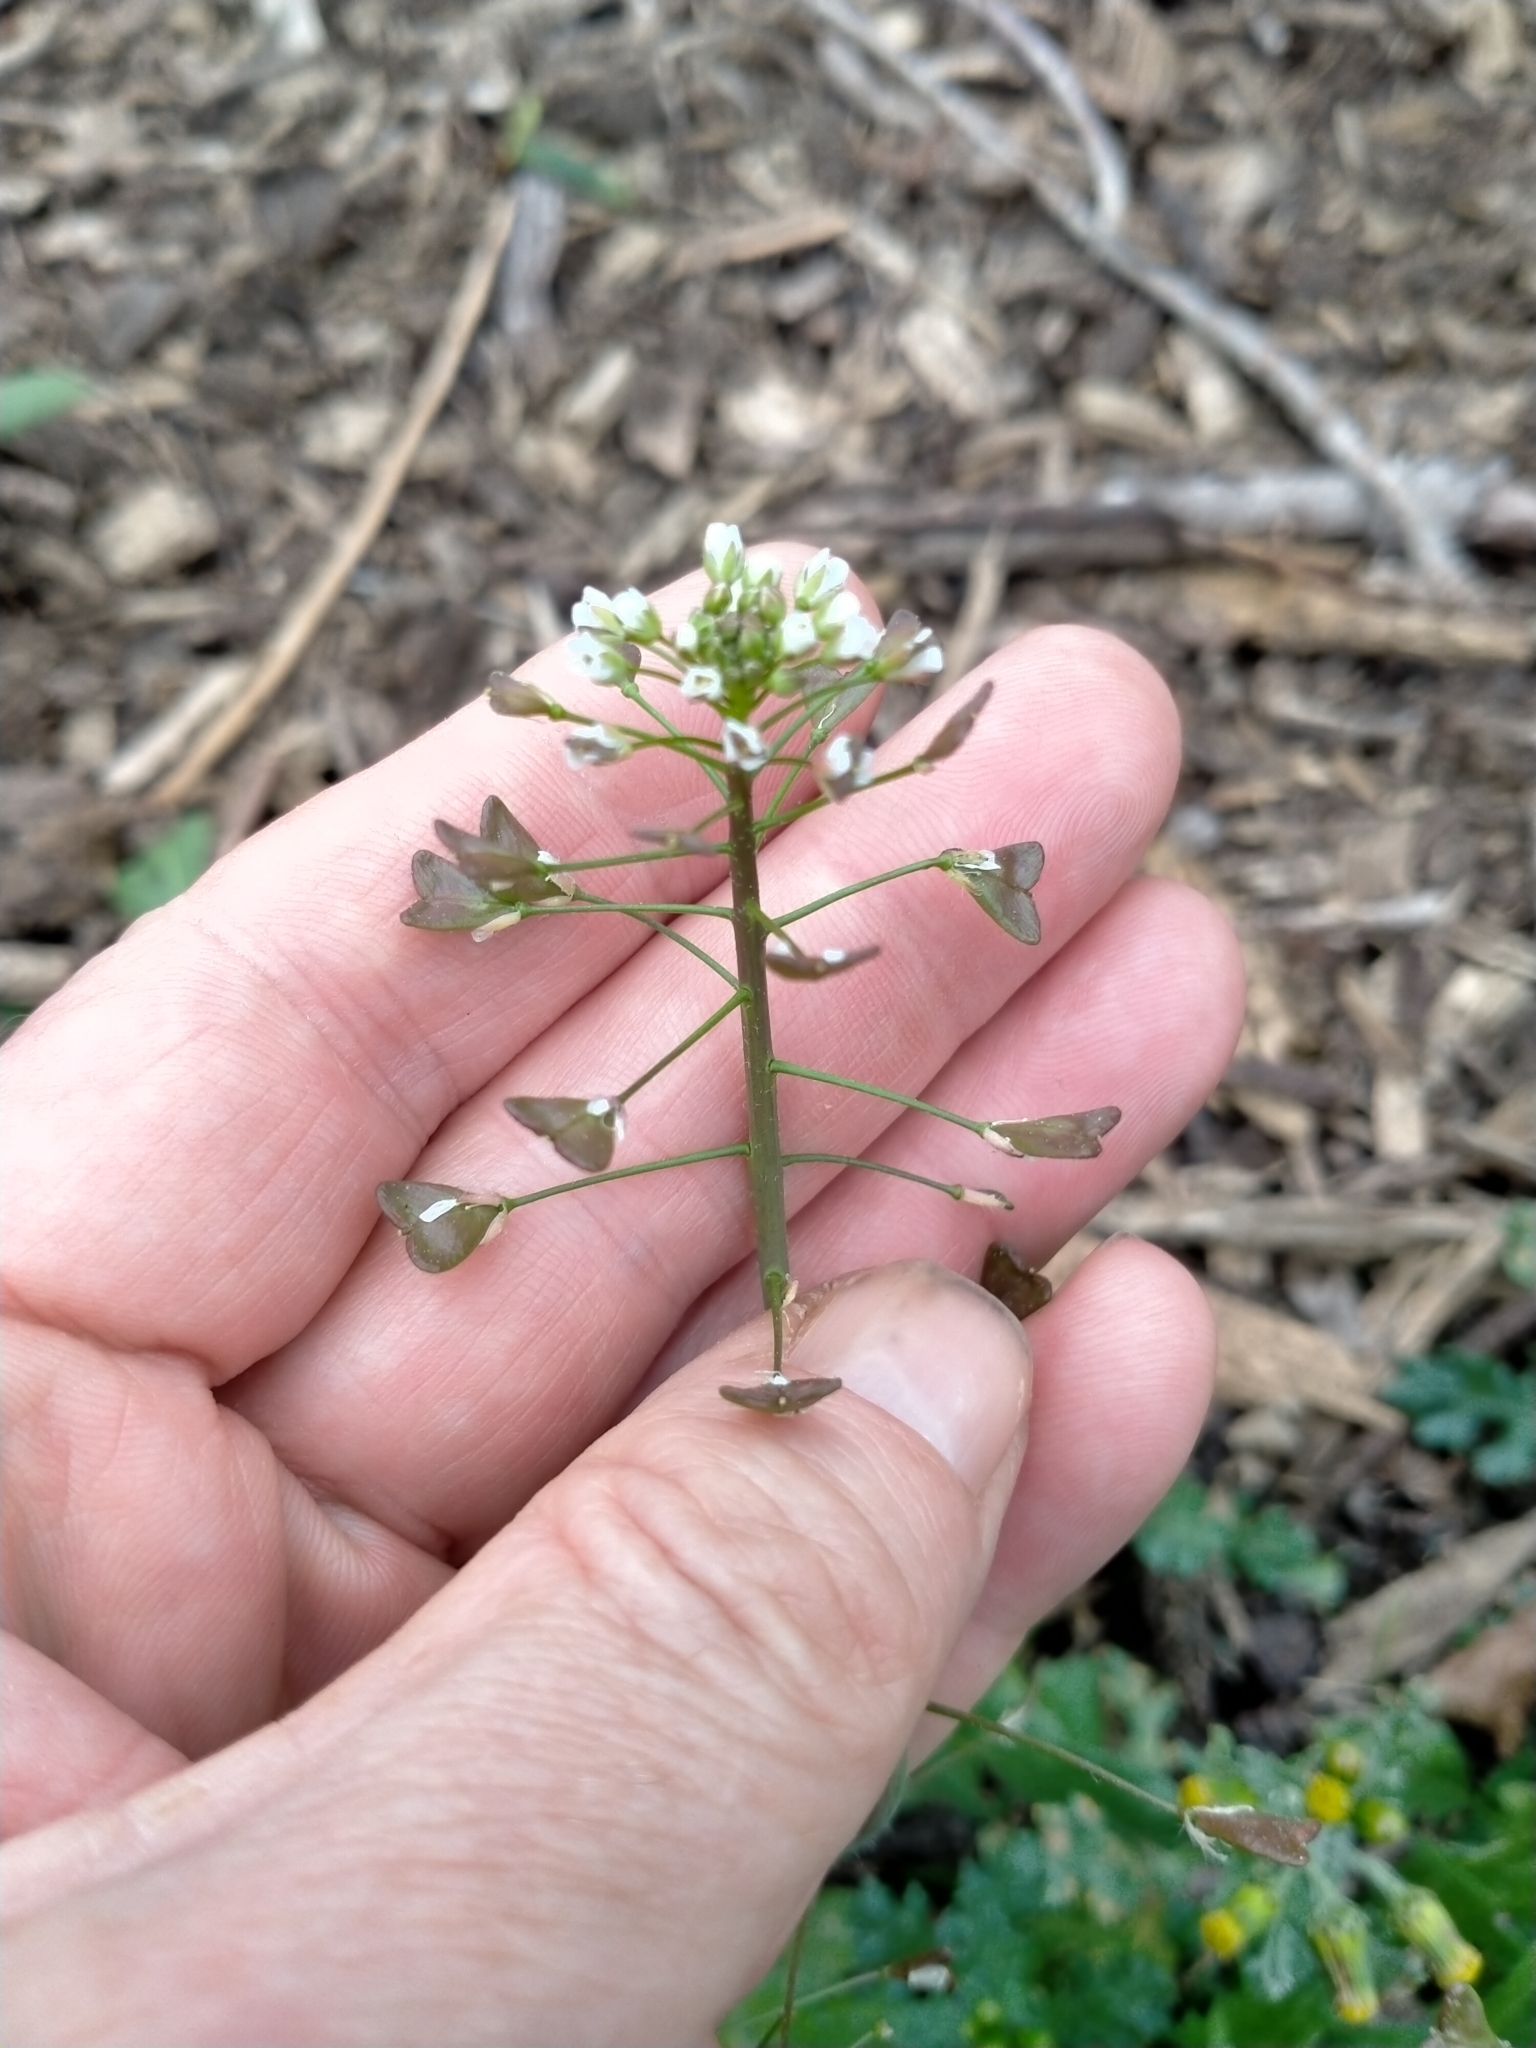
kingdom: Plantae
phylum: Tracheophyta
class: Magnoliopsida
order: Brassicales
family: Brassicaceae
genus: Capsella
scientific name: Capsella bursa-pastoris
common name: Shepherd's purse
